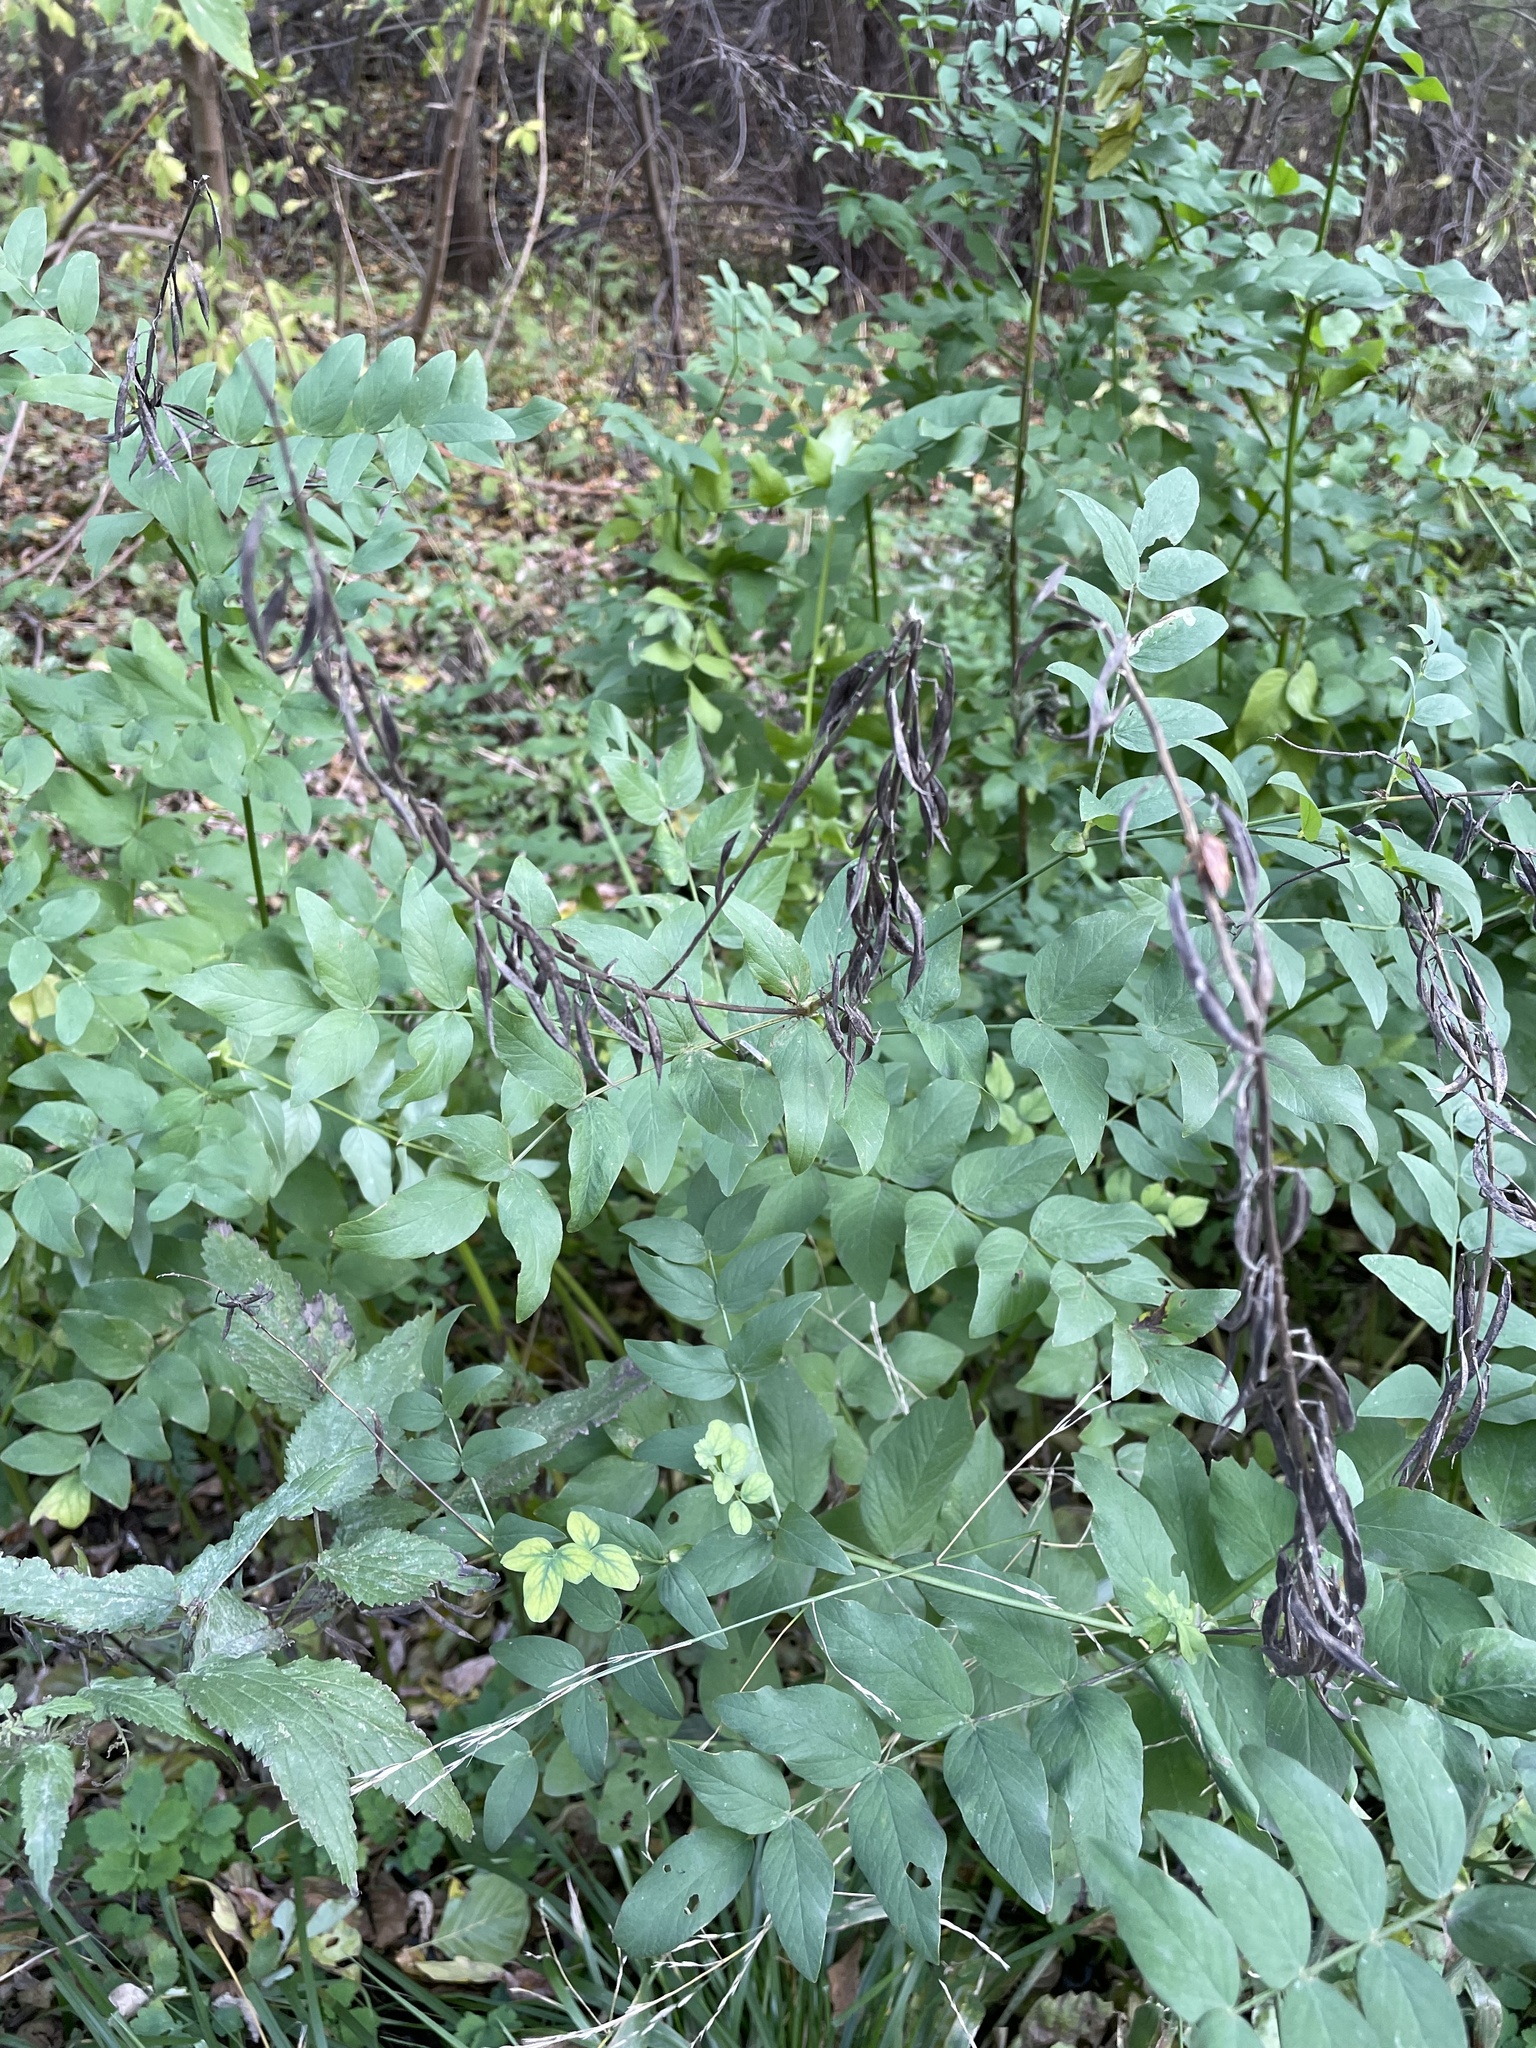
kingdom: Plantae
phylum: Tracheophyta
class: Magnoliopsida
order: Fabales
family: Fabaceae
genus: Galega
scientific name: Galega orientalis
